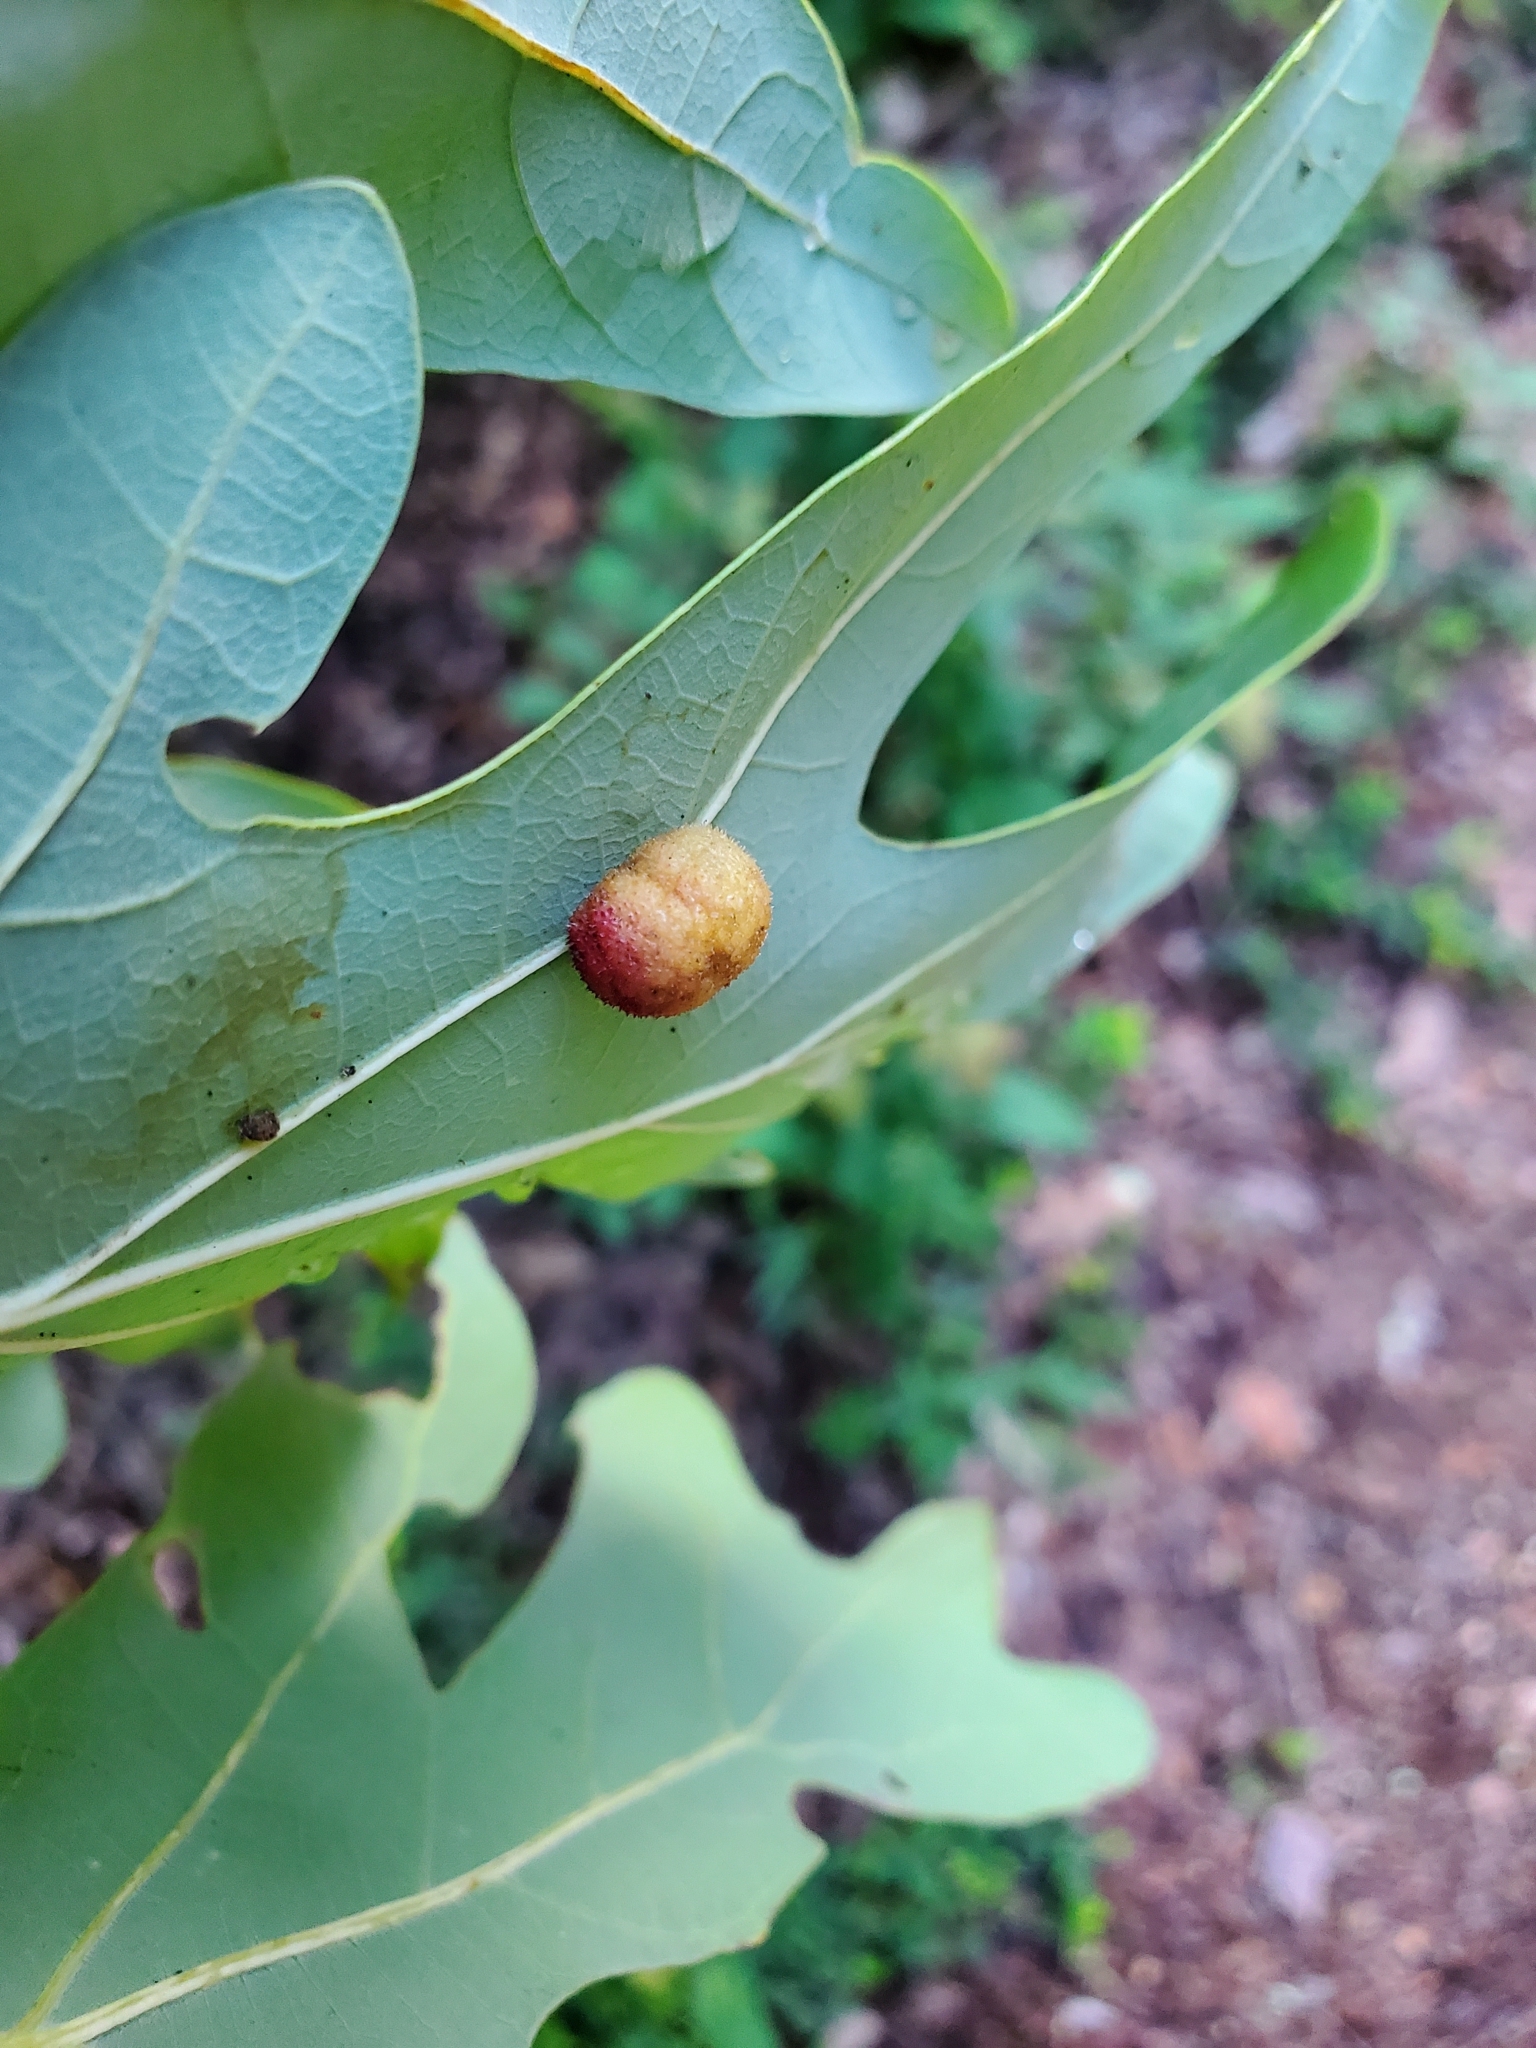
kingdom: Animalia
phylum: Arthropoda
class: Insecta
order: Hymenoptera
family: Cynipidae
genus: Acraspis
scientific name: Acraspis erinacei
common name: Hedgehog gall wasp
